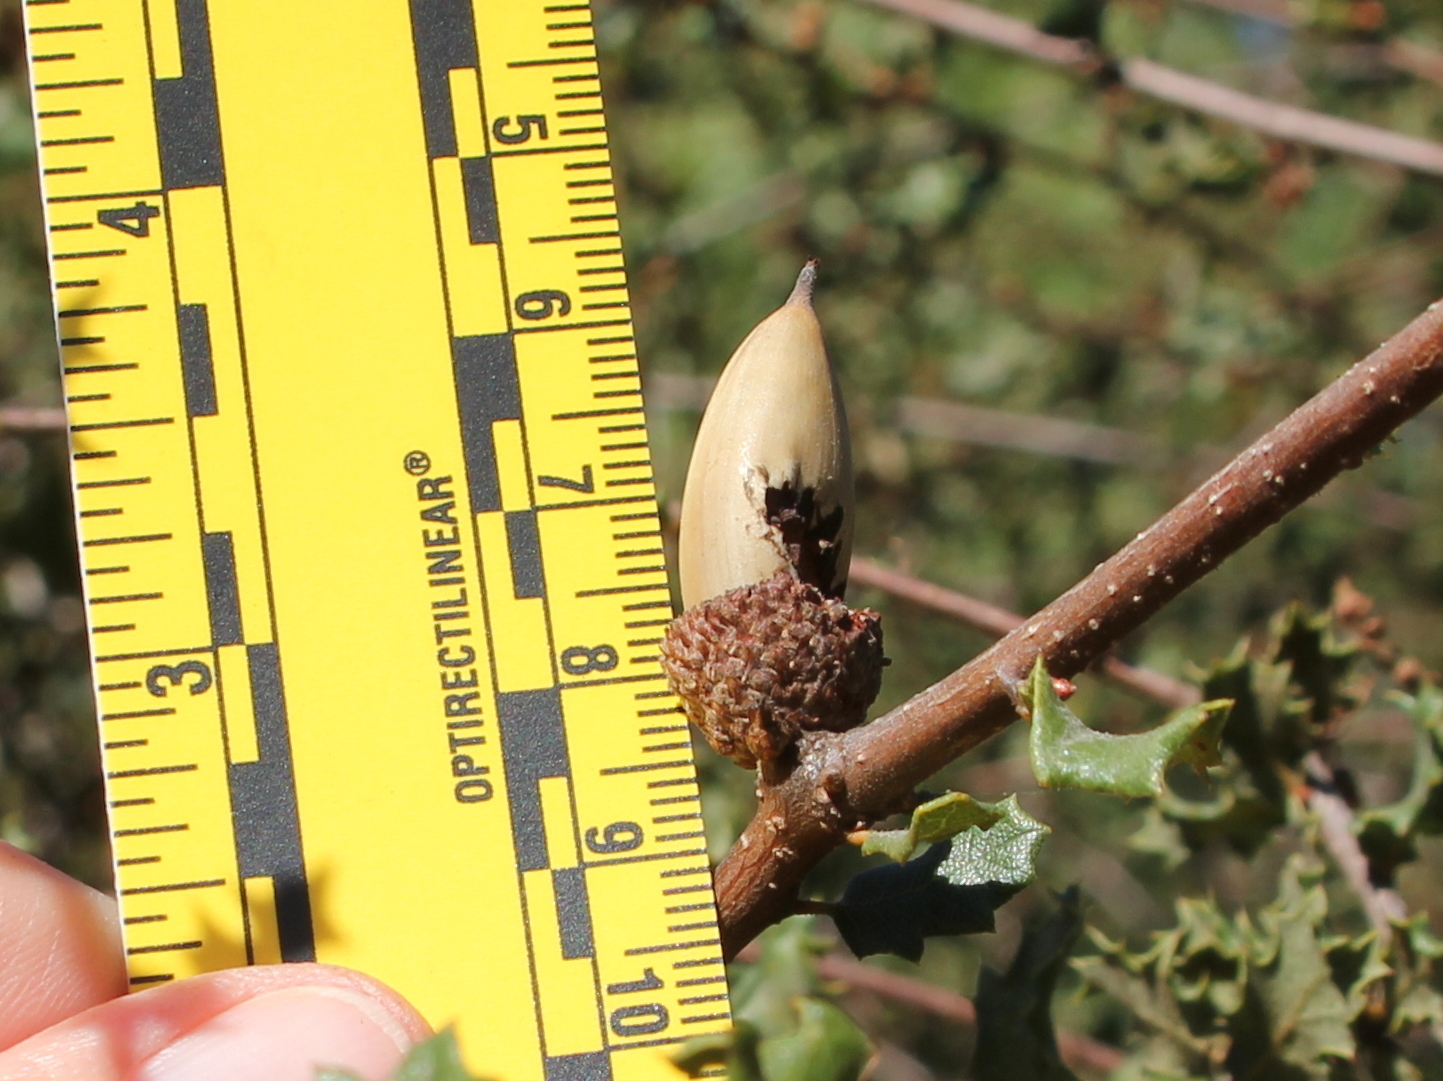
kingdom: Plantae
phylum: Tracheophyta
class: Magnoliopsida
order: Fagales
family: Fagaceae
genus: Quercus
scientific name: Quercus dumosa
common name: Coastal sage scrub oak
